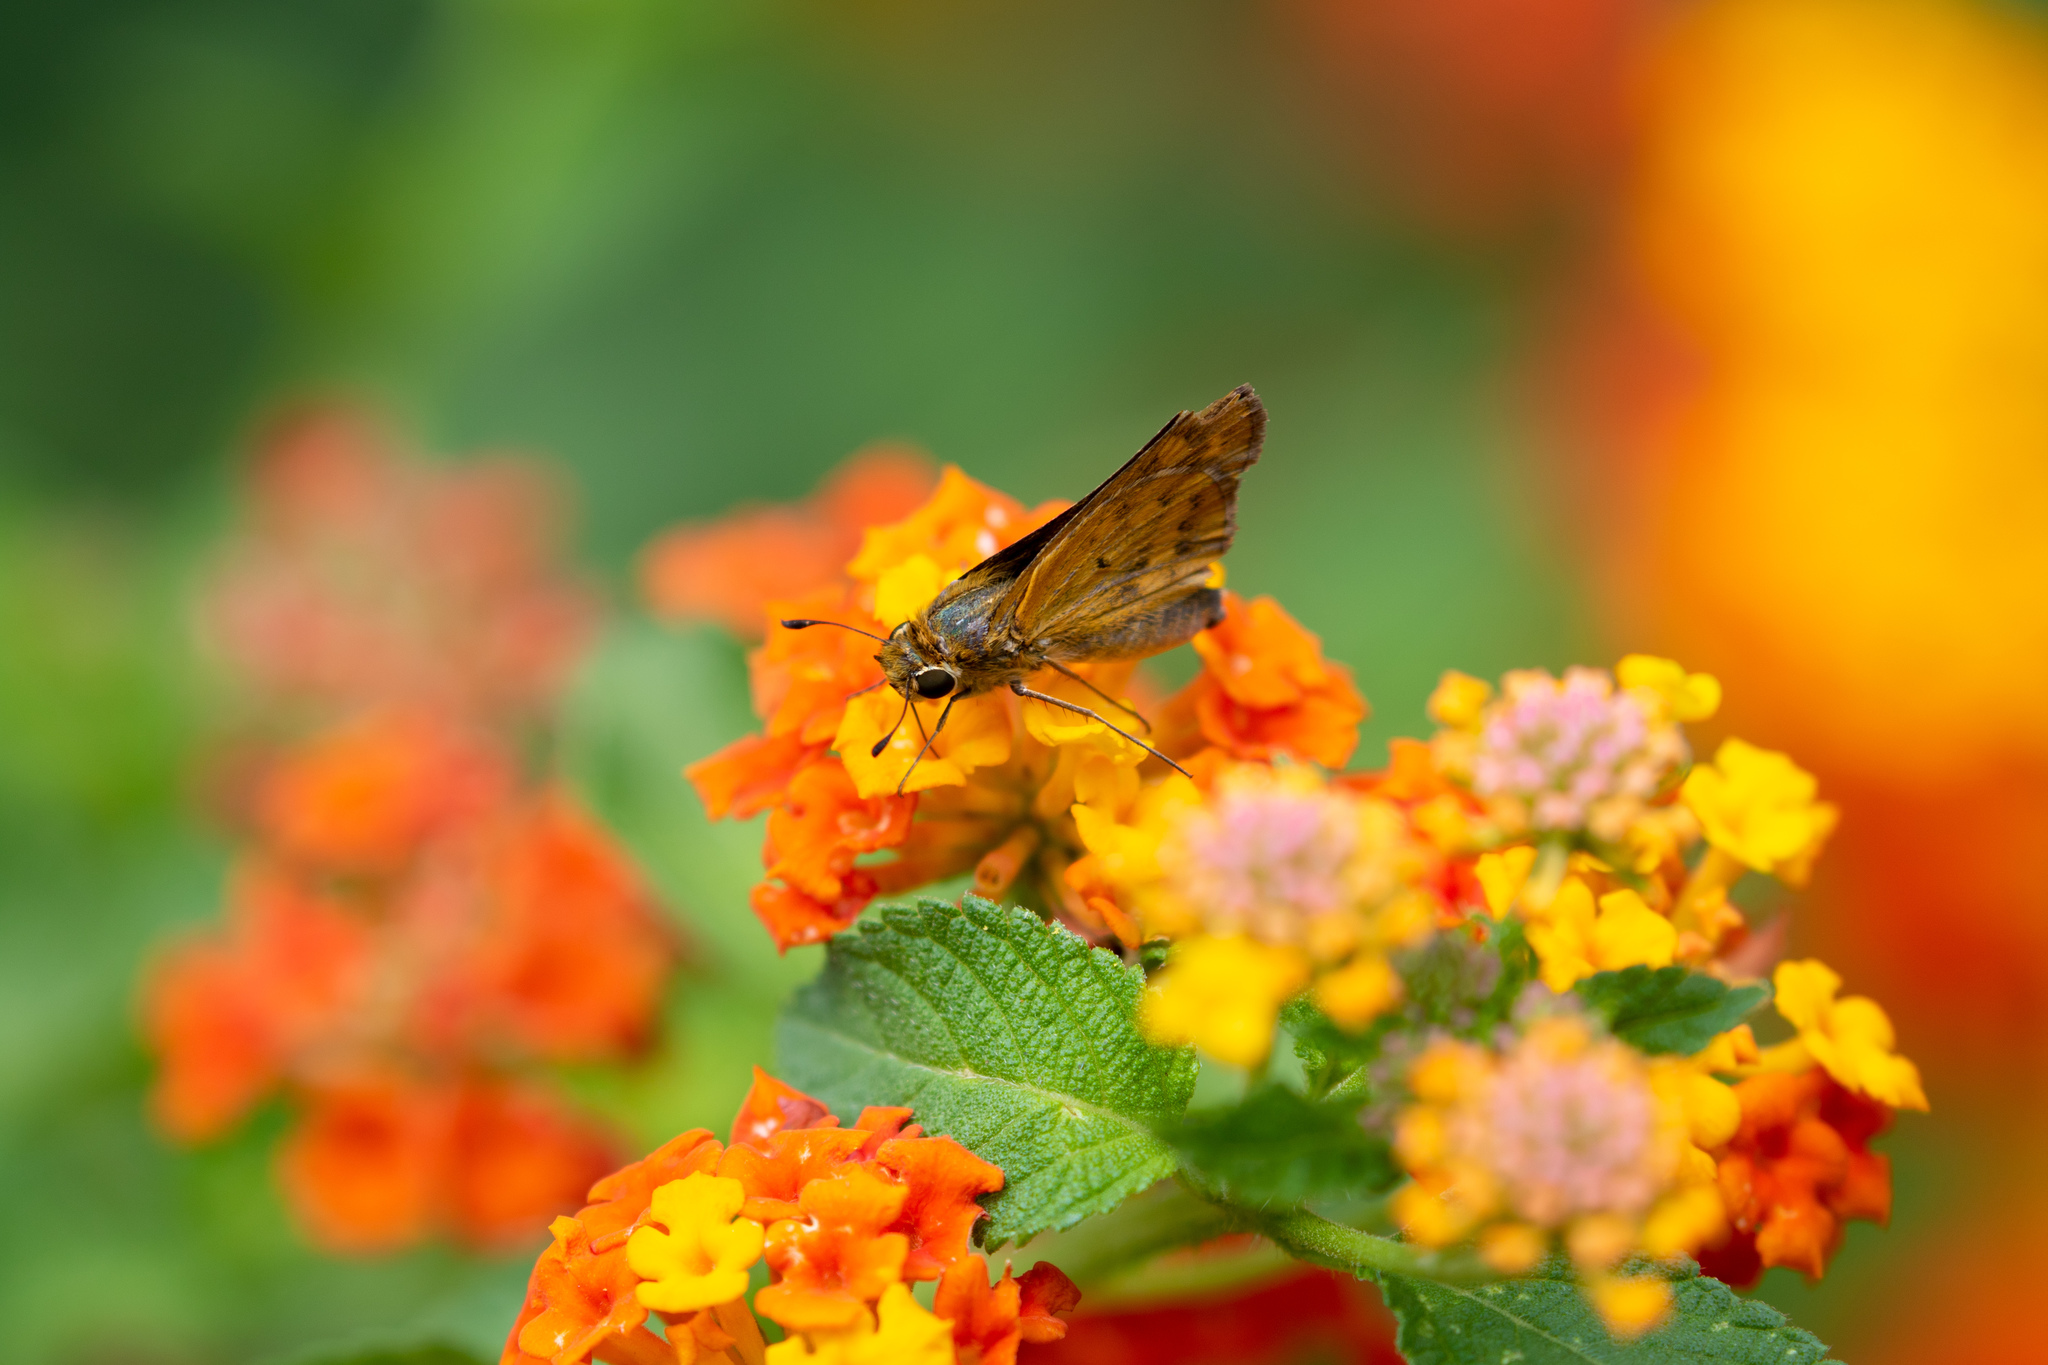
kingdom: Animalia
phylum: Arthropoda
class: Insecta
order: Lepidoptera
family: Hesperiidae
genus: Hylephila
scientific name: Hylephila phyleus
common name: Fiery skipper
